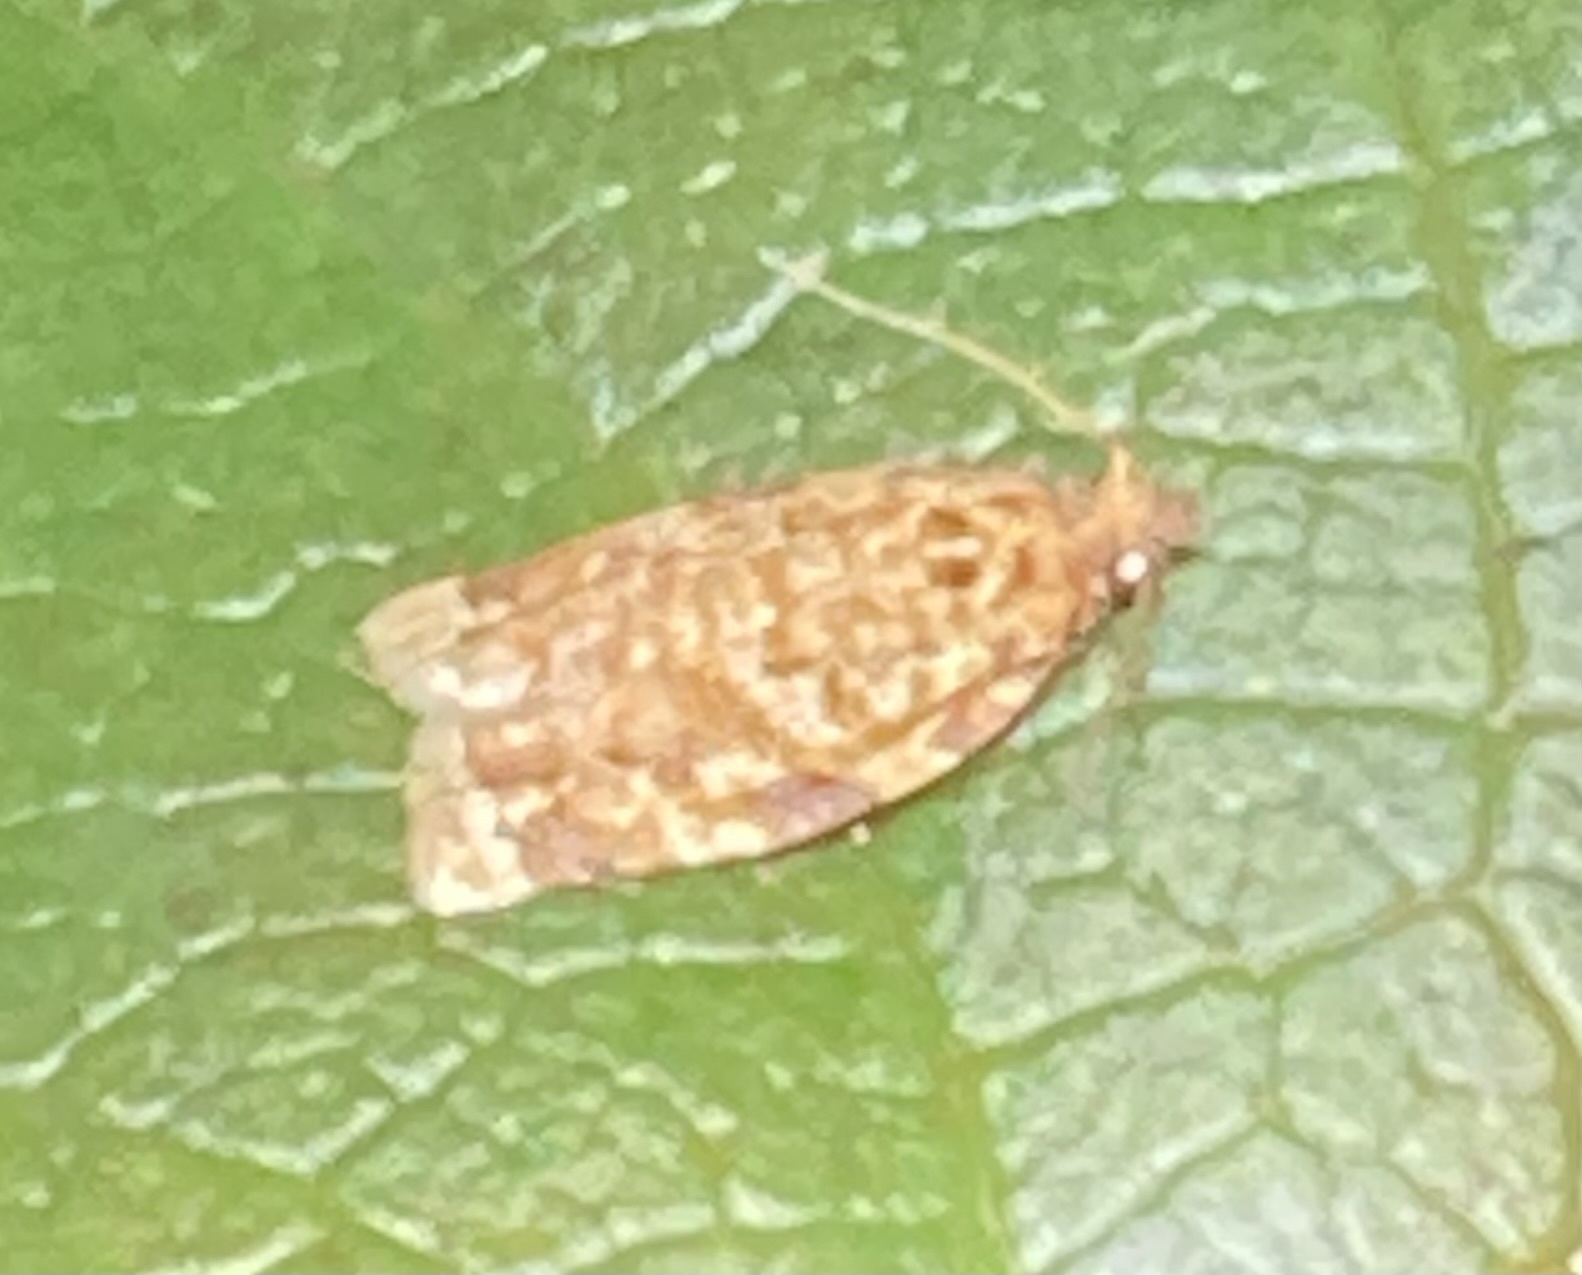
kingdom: Animalia
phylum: Arthropoda
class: Insecta
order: Lepidoptera
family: Tortricidae
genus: Argyrotaenia
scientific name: Argyrotaenia amatana
